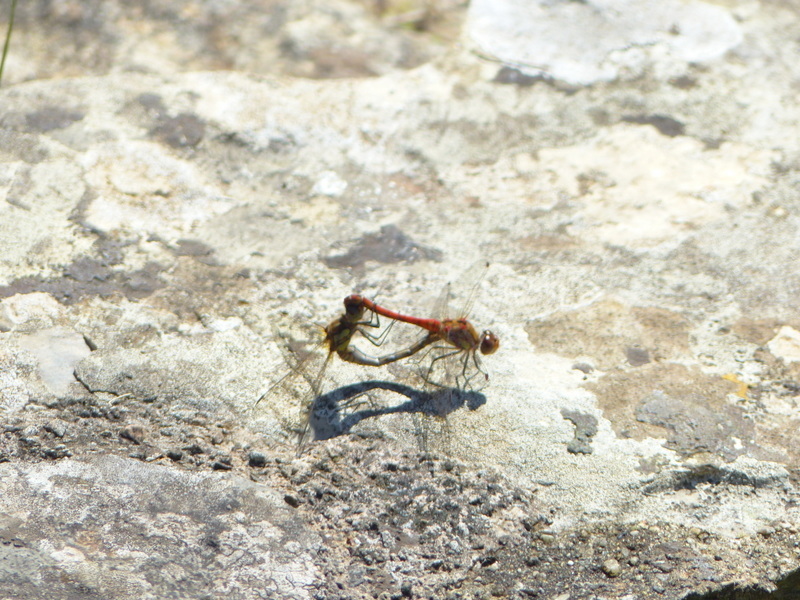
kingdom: Animalia
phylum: Arthropoda
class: Insecta
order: Odonata
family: Libellulidae
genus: Sympetrum
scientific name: Sympetrum striolatum
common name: Common darter
